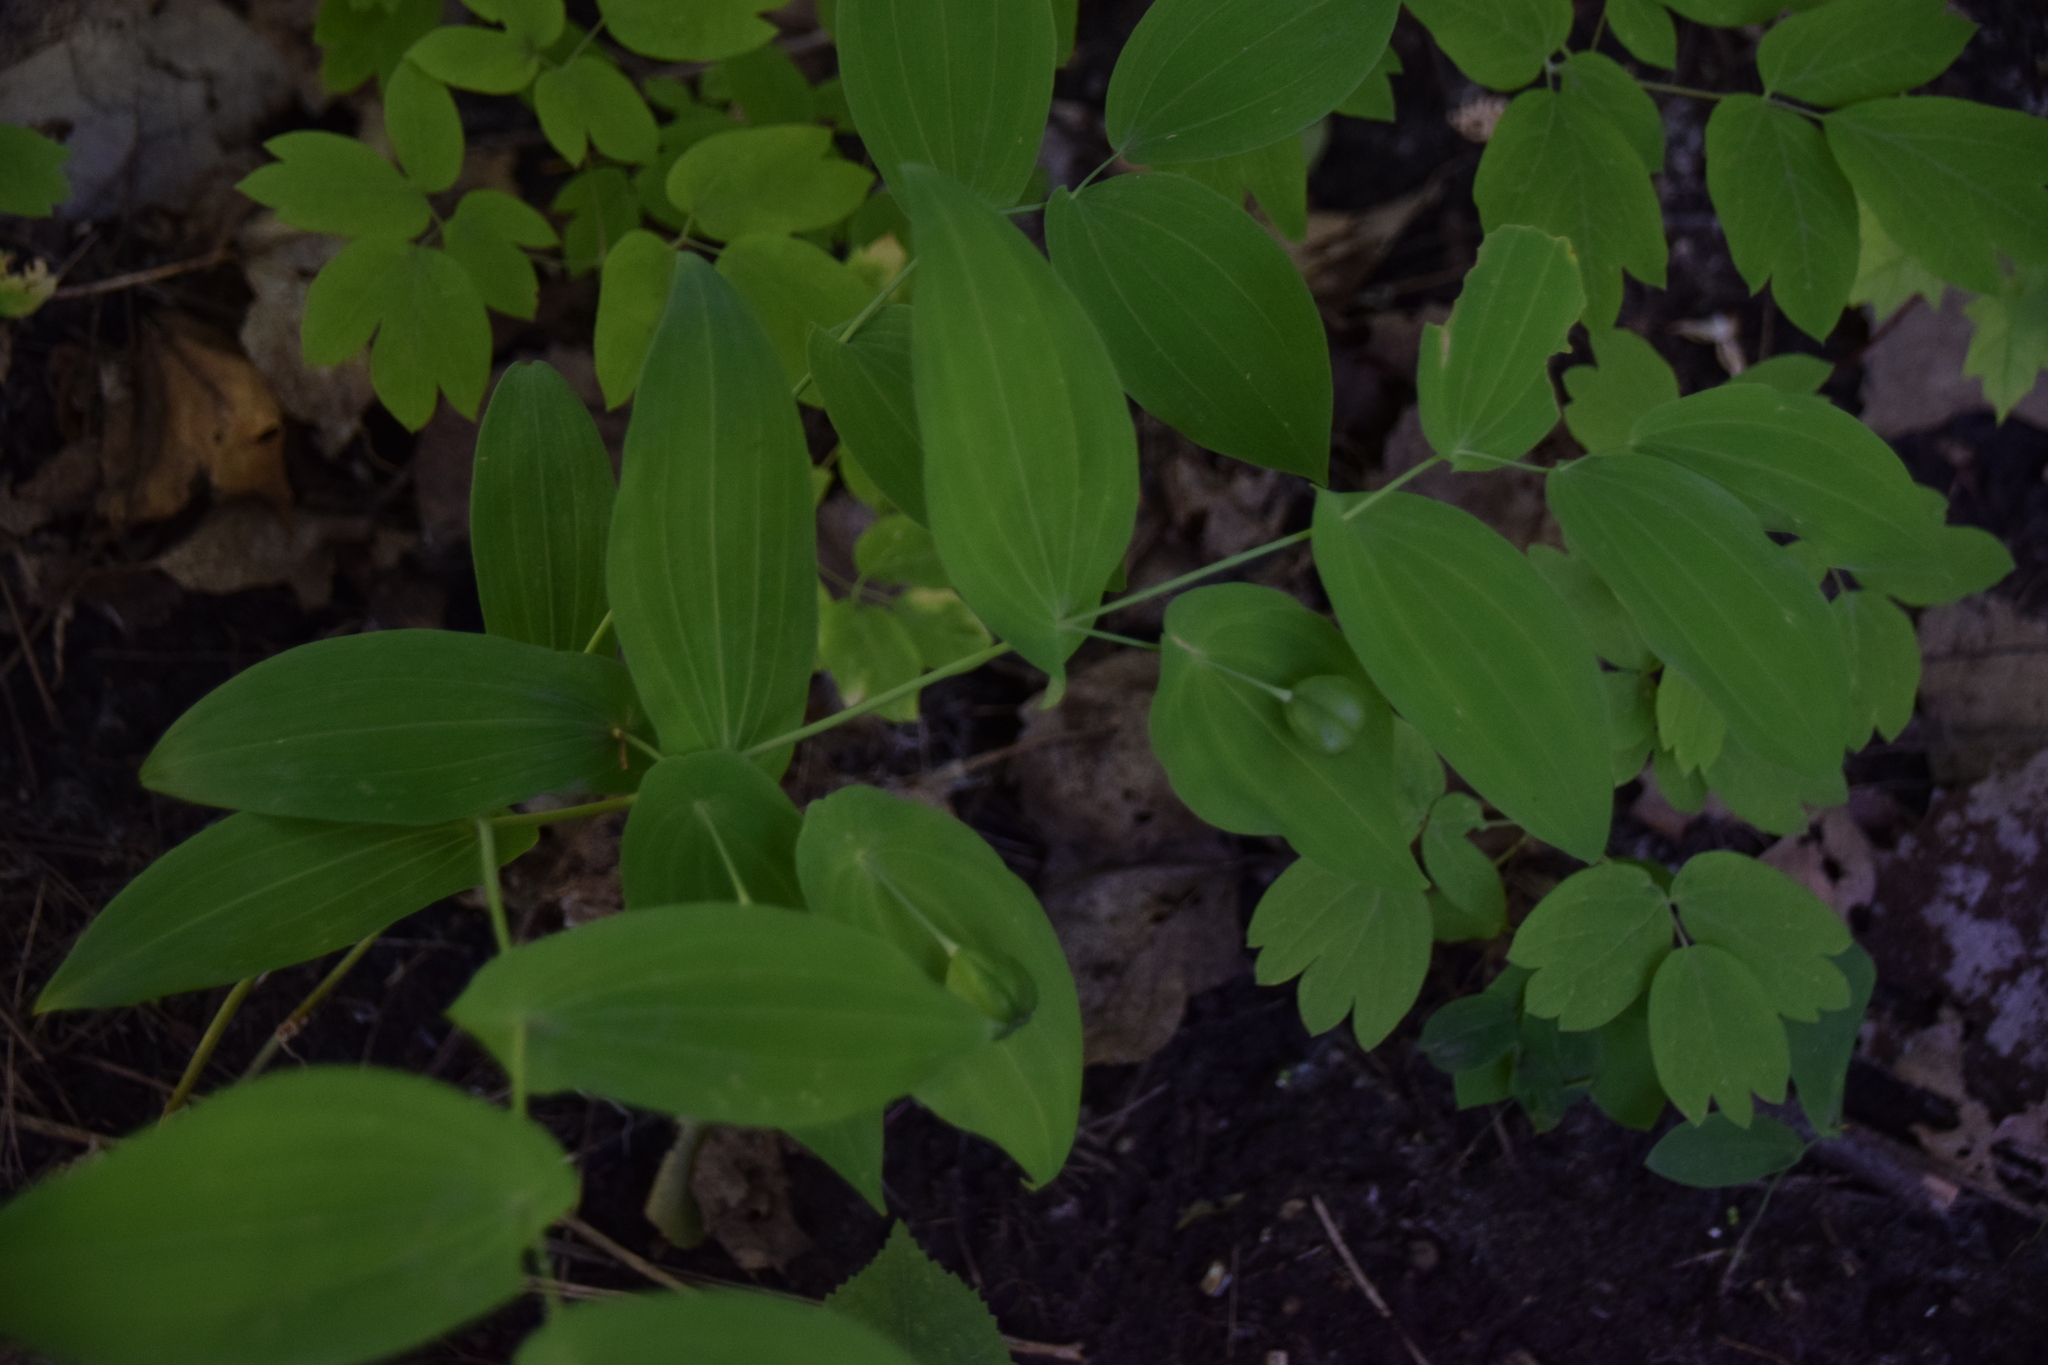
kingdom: Plantae
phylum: Tracheophyta
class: Liliopsida
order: Liliales
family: Colchicaceae
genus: Uvularia
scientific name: Uvularia grandiflora
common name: Bellwort
